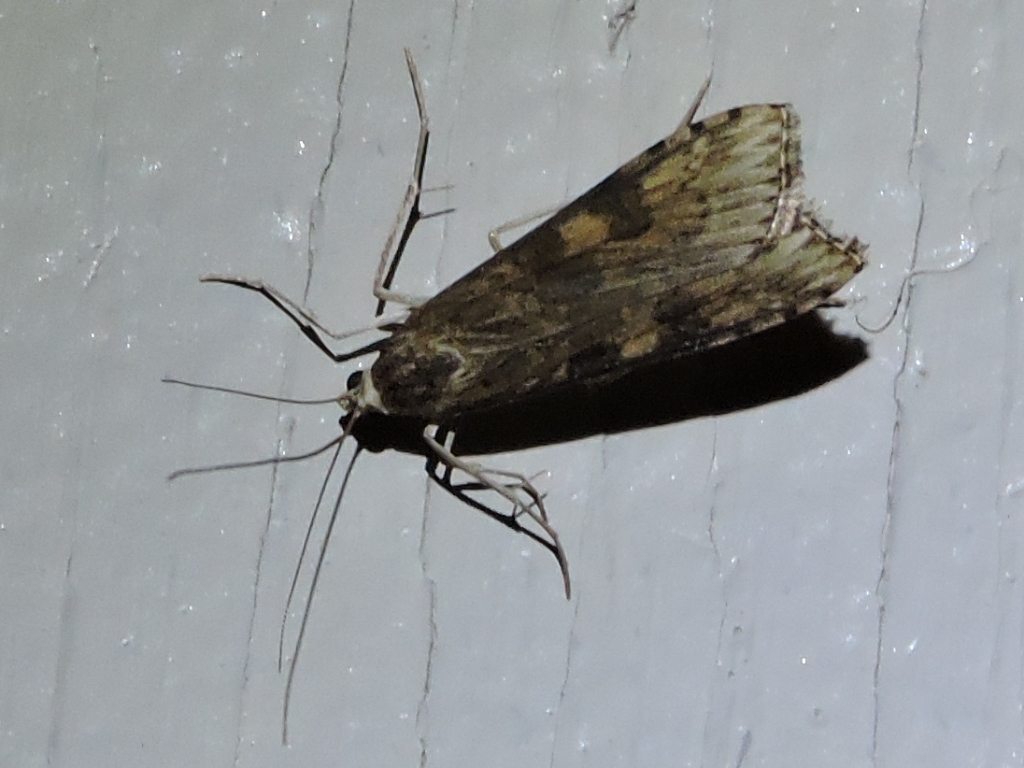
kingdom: Animalia
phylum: Arthropoda
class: Insecta
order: Lepidoptera
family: Crambidae
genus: Nomophila
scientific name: Nomophila nearctica
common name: American rush veneer
